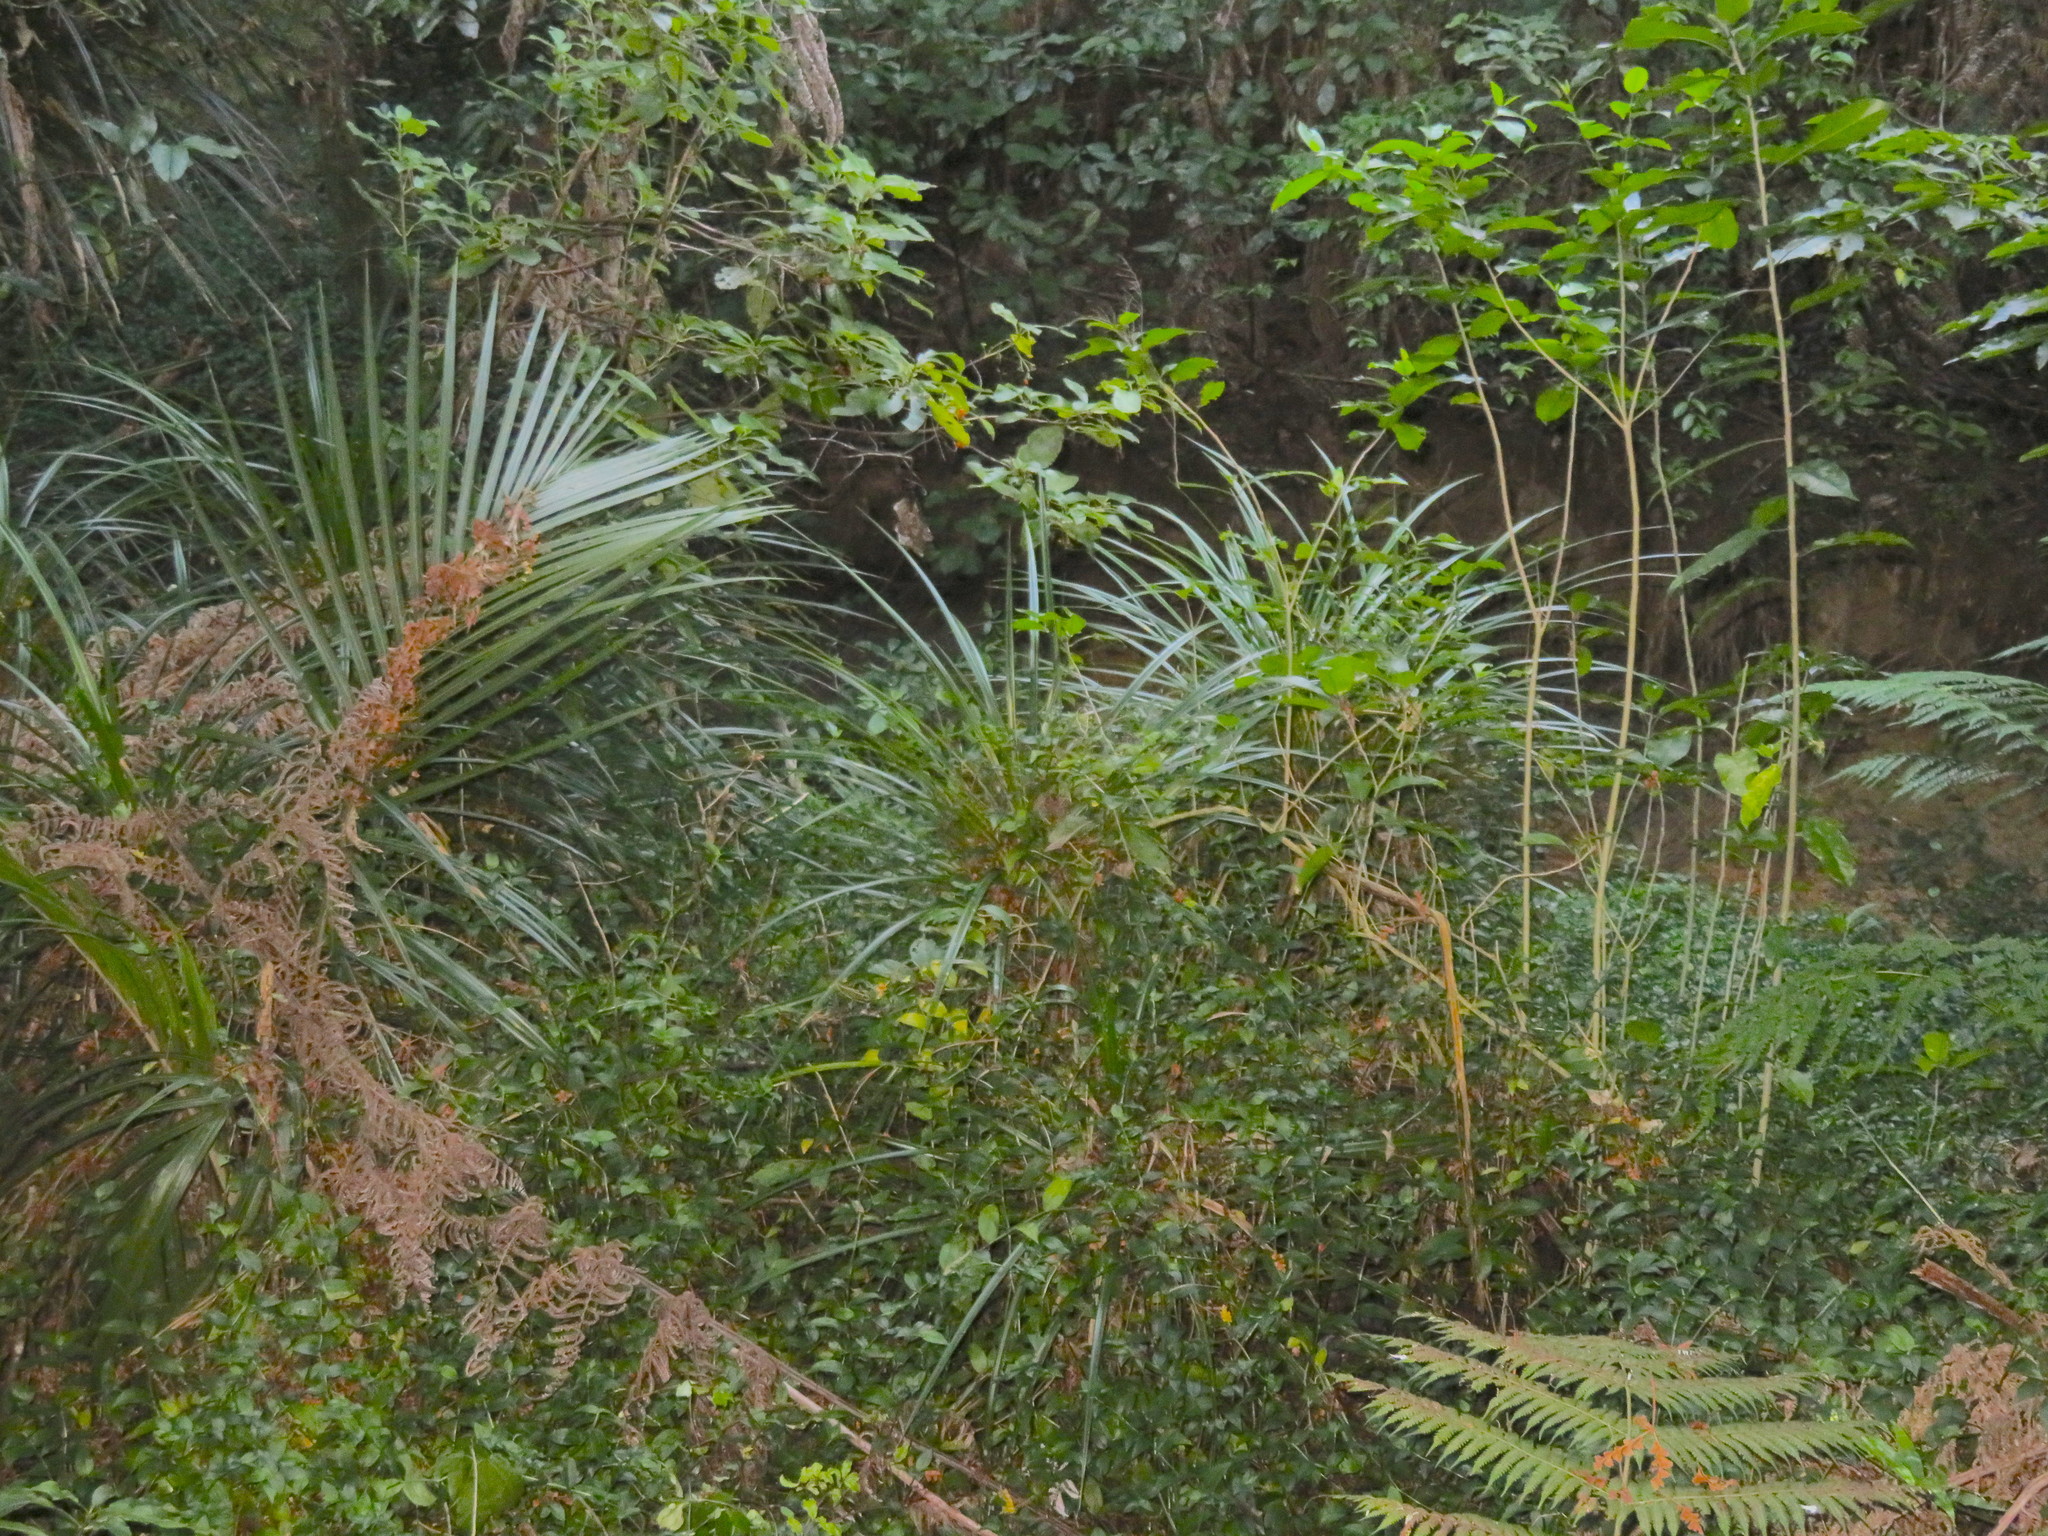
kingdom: Plantae
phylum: Tracheophyta
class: Magnoliopsida
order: Malpighiales
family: Violaceae
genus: Melicytus
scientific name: Melicytus ramiflorus
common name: Mahoe
